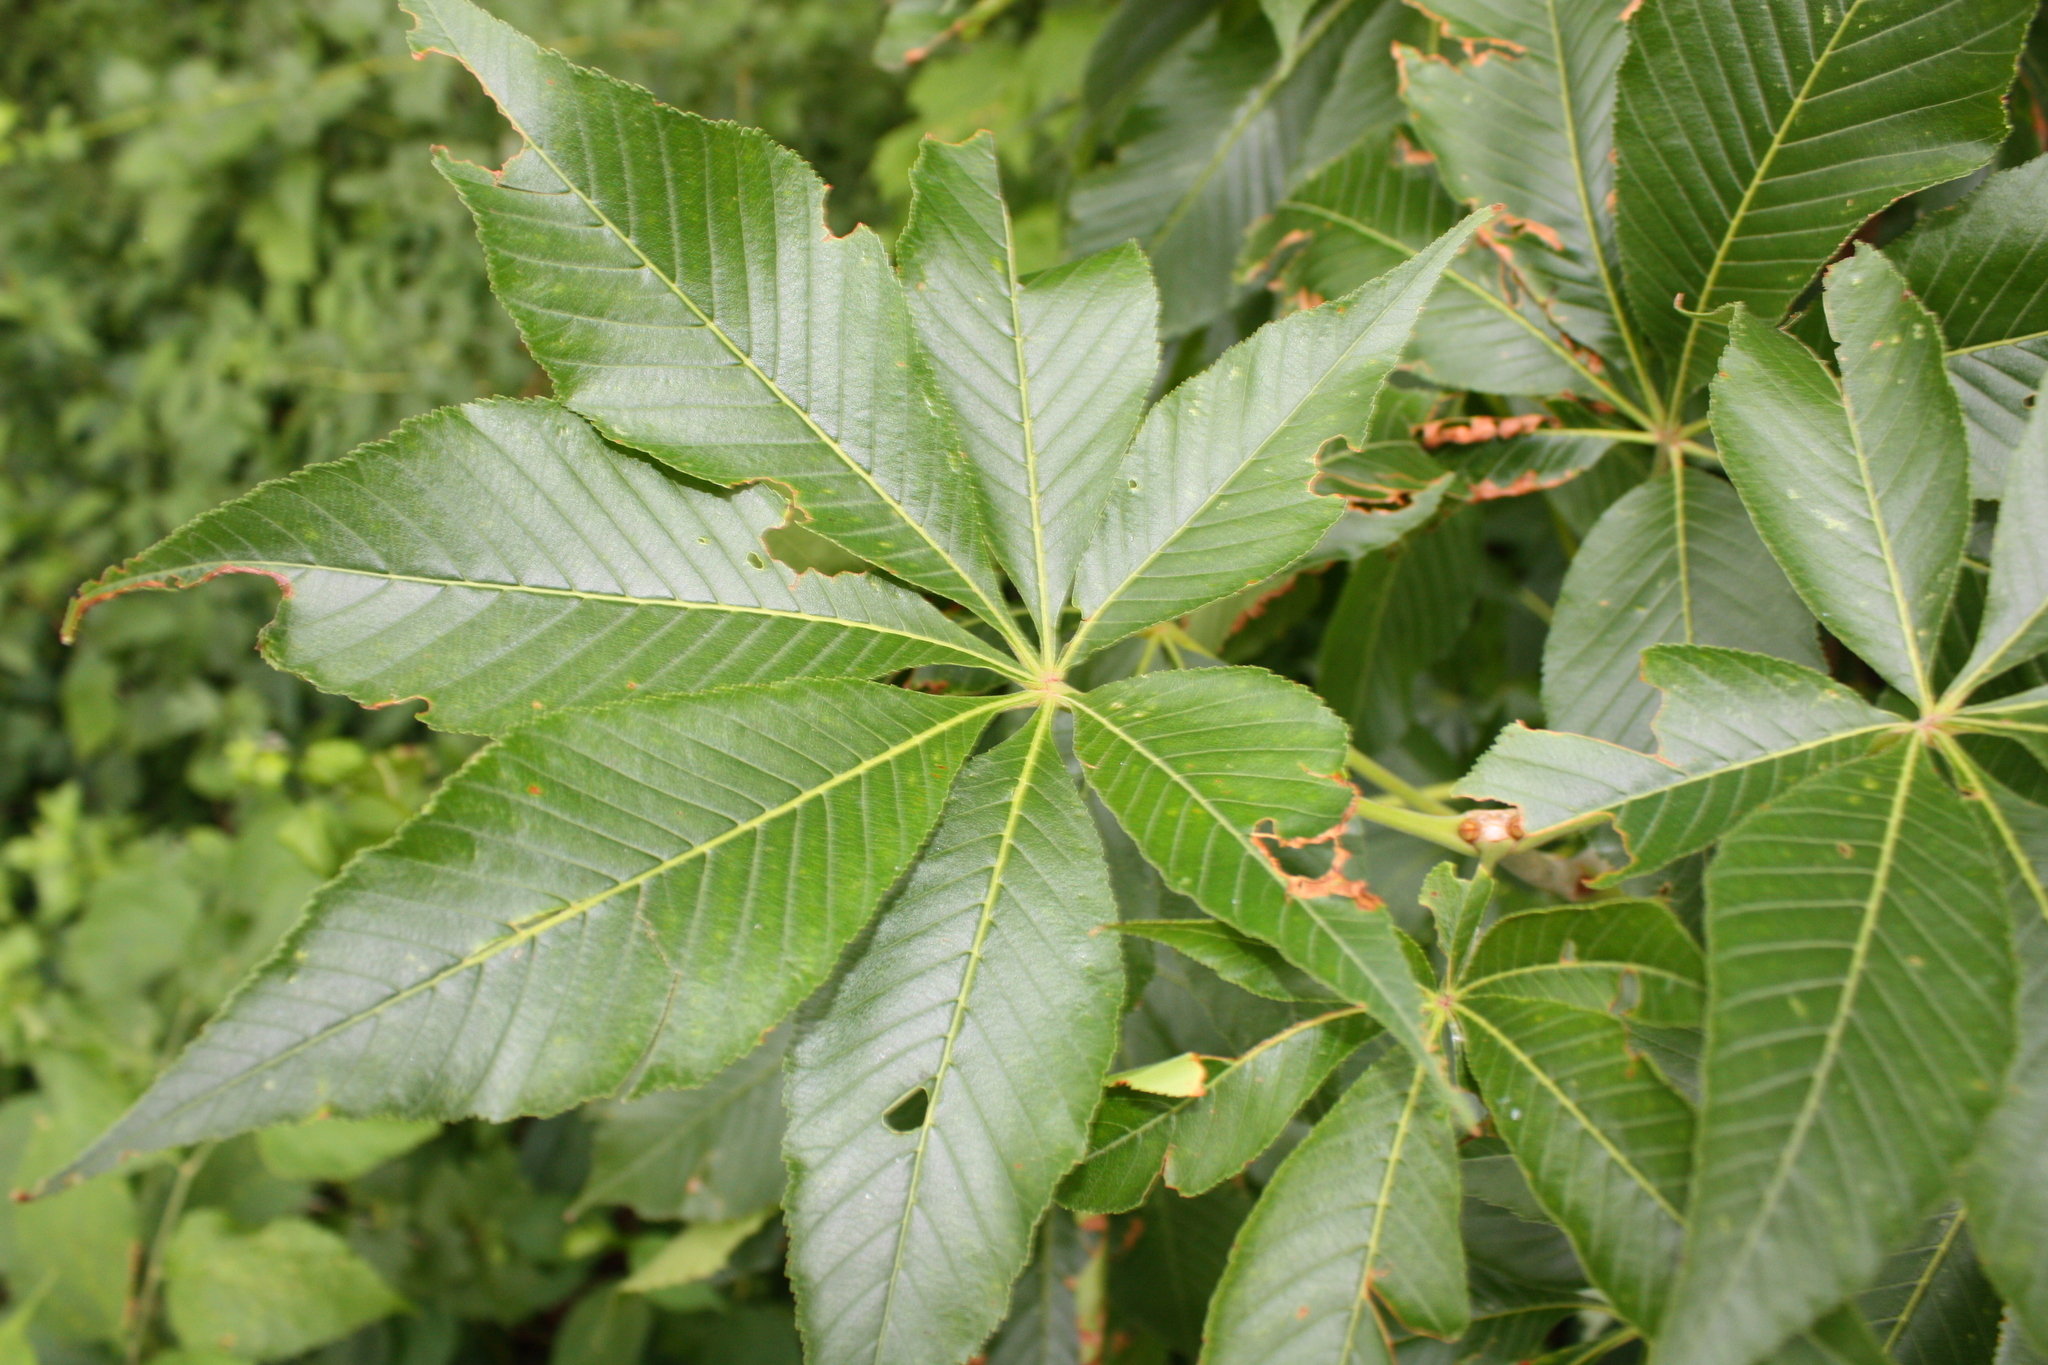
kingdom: Plantae
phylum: Tracheophyta
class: Magnoliopsida
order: Sapindales
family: Sapindaceae
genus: Aesculus
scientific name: Aesculus glabra
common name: Ohio buckeye
